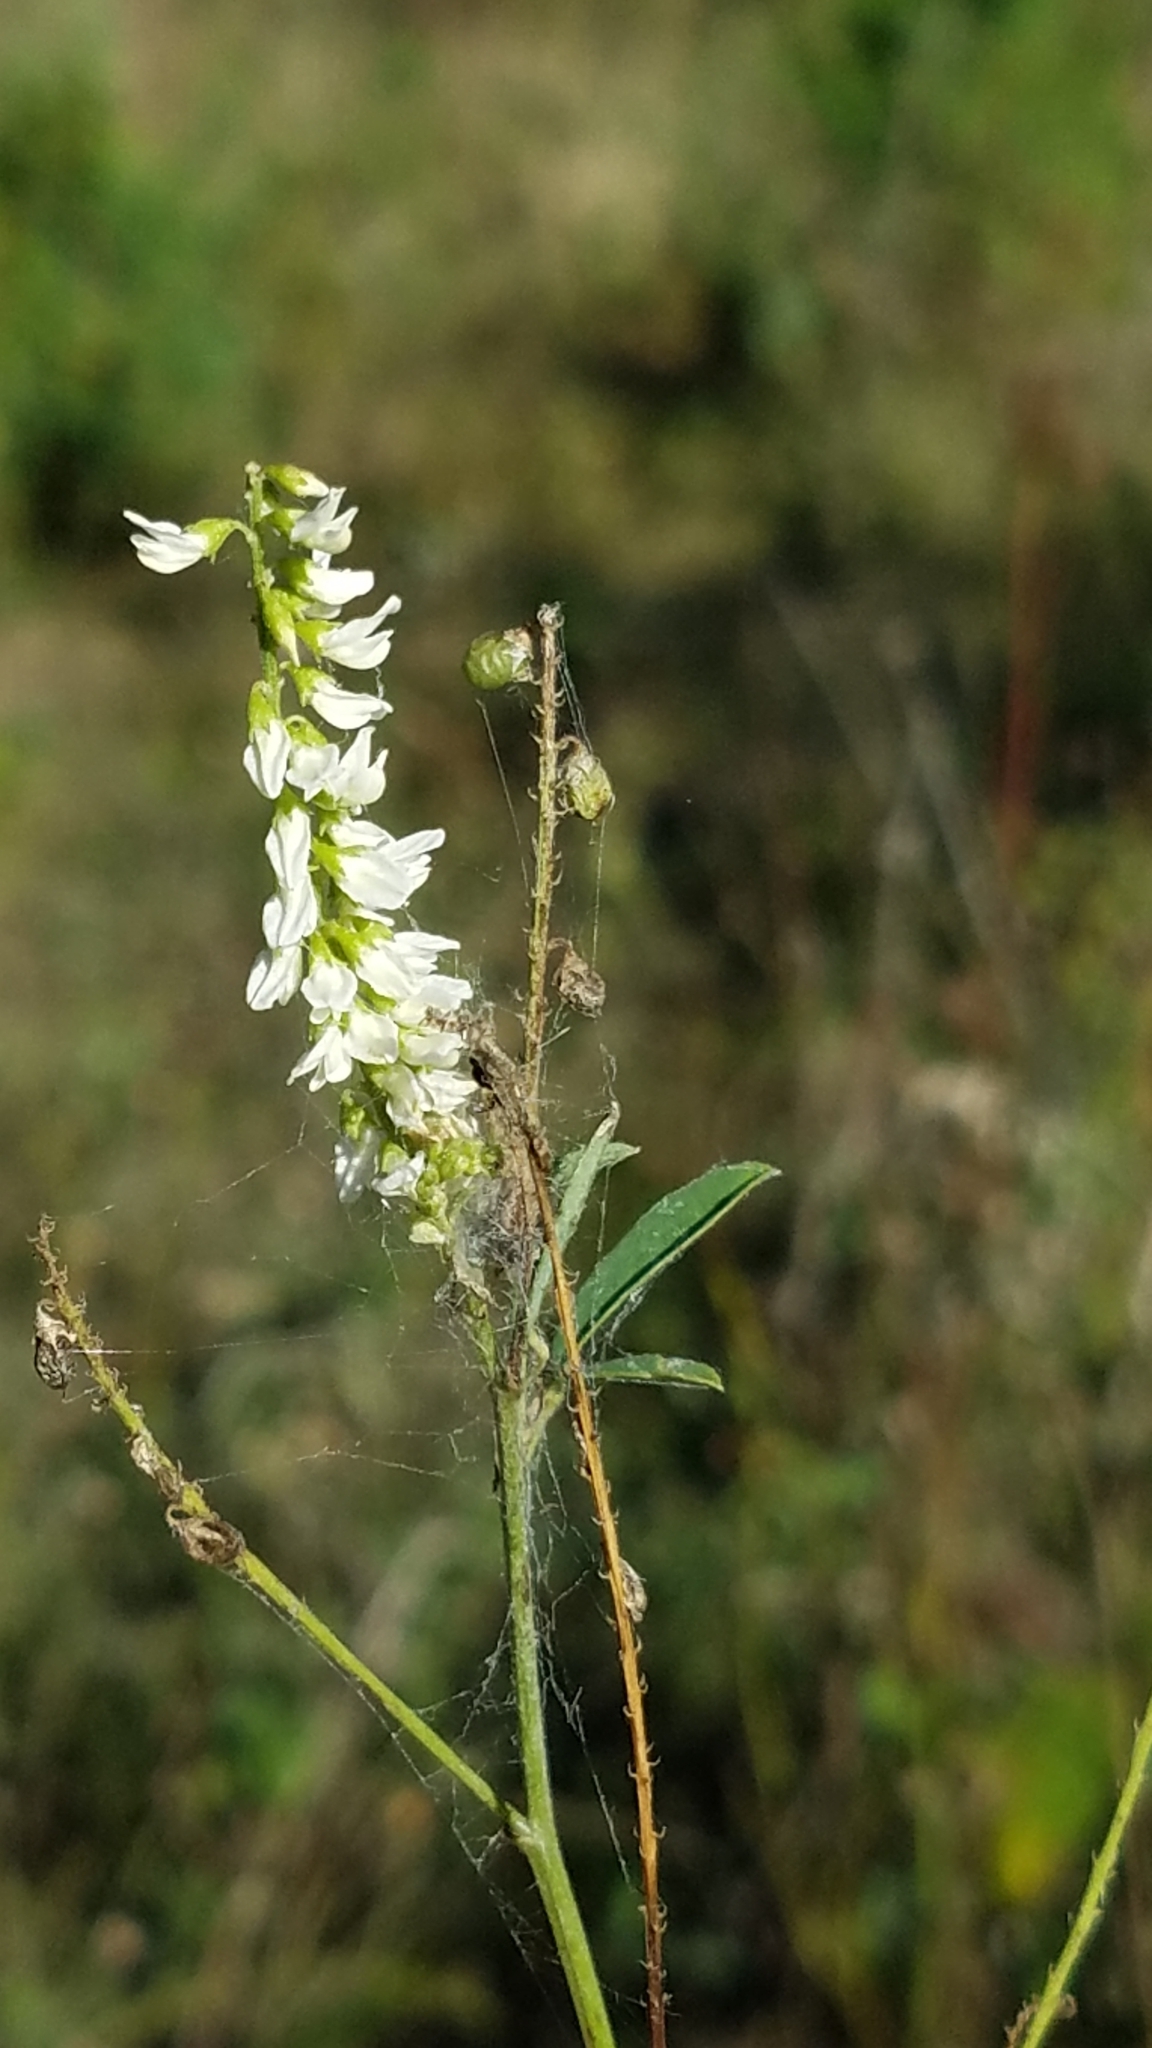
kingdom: Plantae
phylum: Tracheophyta
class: Magnoliopsida
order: Fabales
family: Fabaceae
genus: Melilotus
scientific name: Melilotus albus
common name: White melilot
